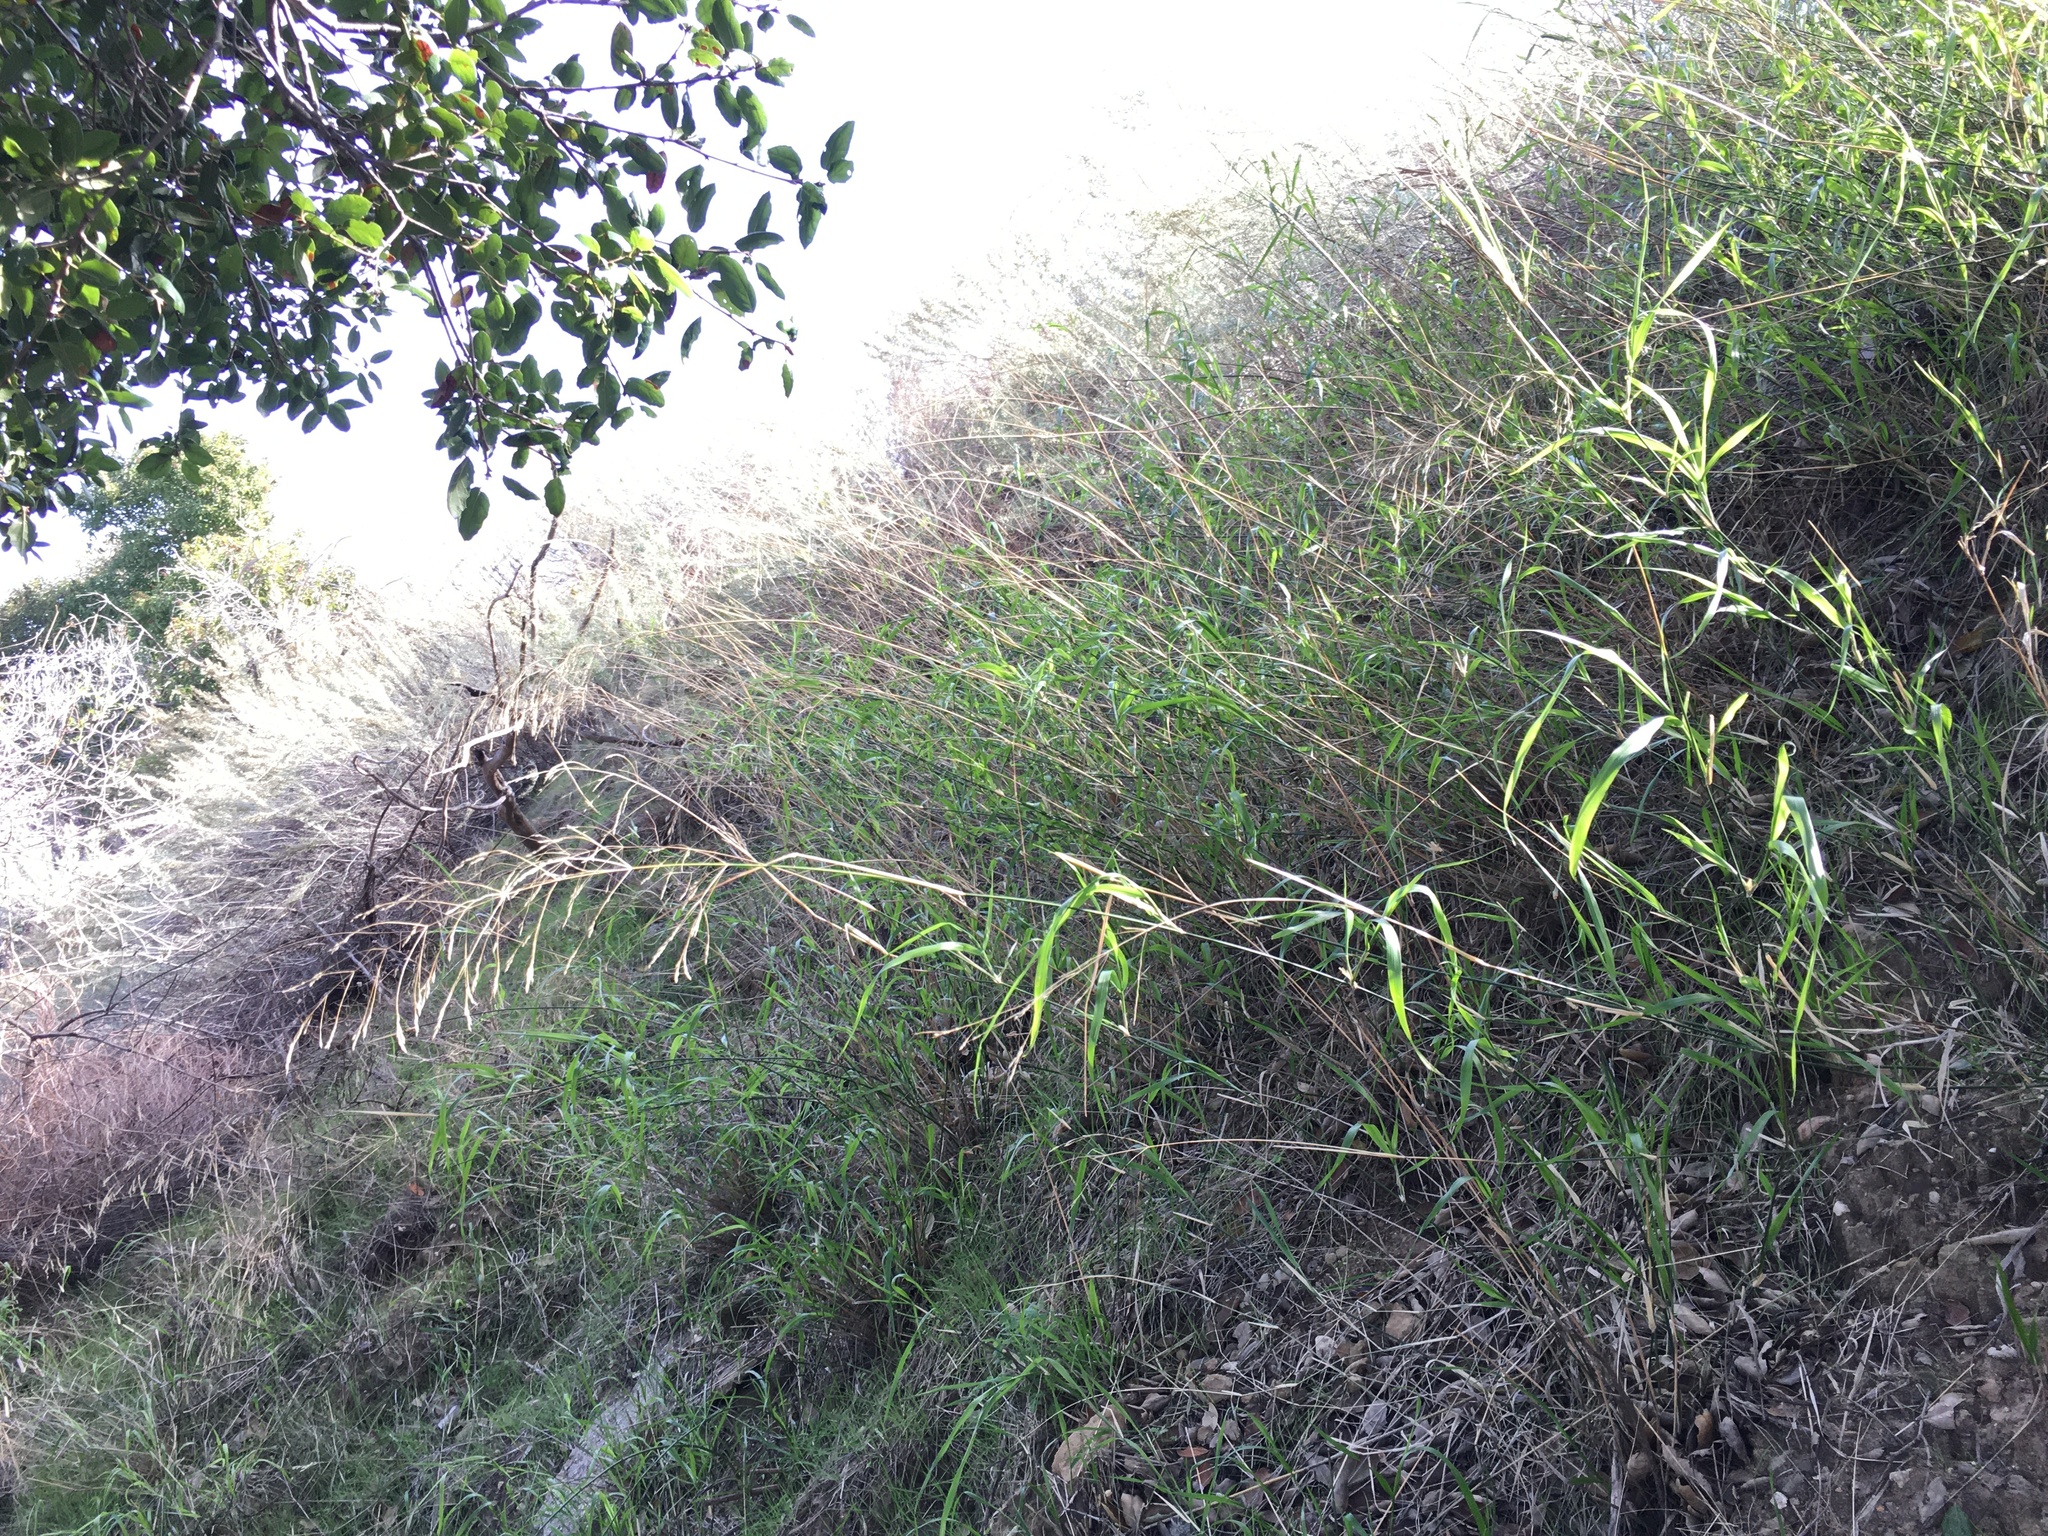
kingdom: Plantae
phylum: Tracheophyta
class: Liliopsida
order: Poales
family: Poaceae
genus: Oloptum
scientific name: Oloptum miliaceum
